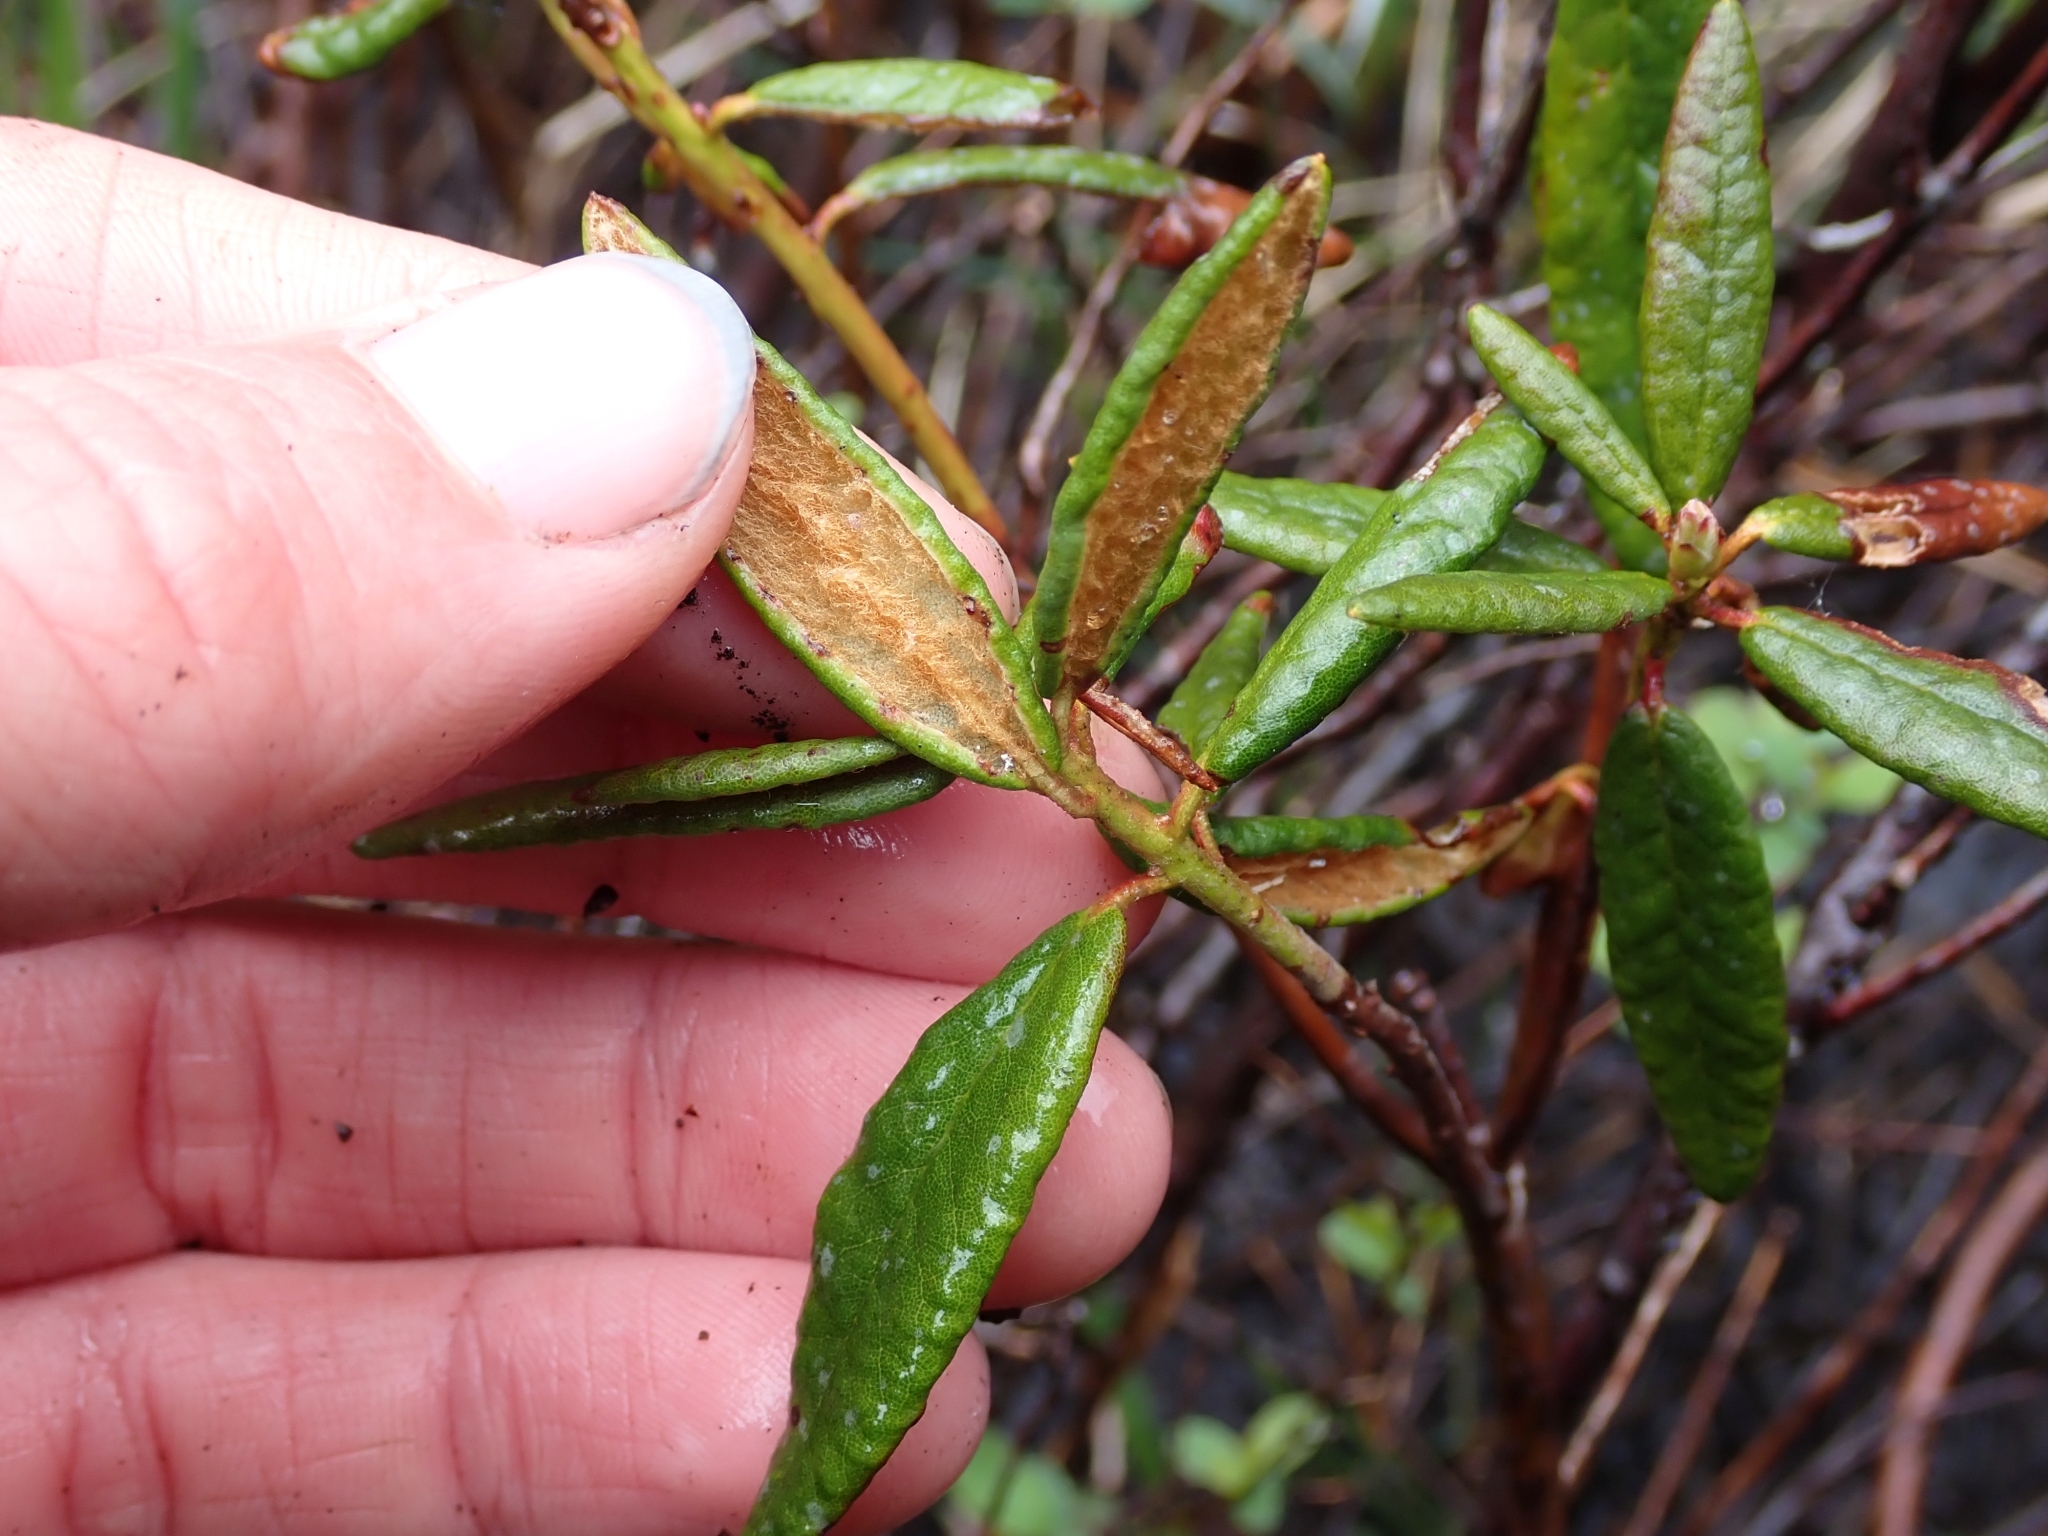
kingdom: Plantae
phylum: Tracheophyta
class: Magnoliopsida
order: Ericales
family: Ericaceae
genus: Rhododendron
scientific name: Rhododendron groenlandicum
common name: Bog labrador tea
